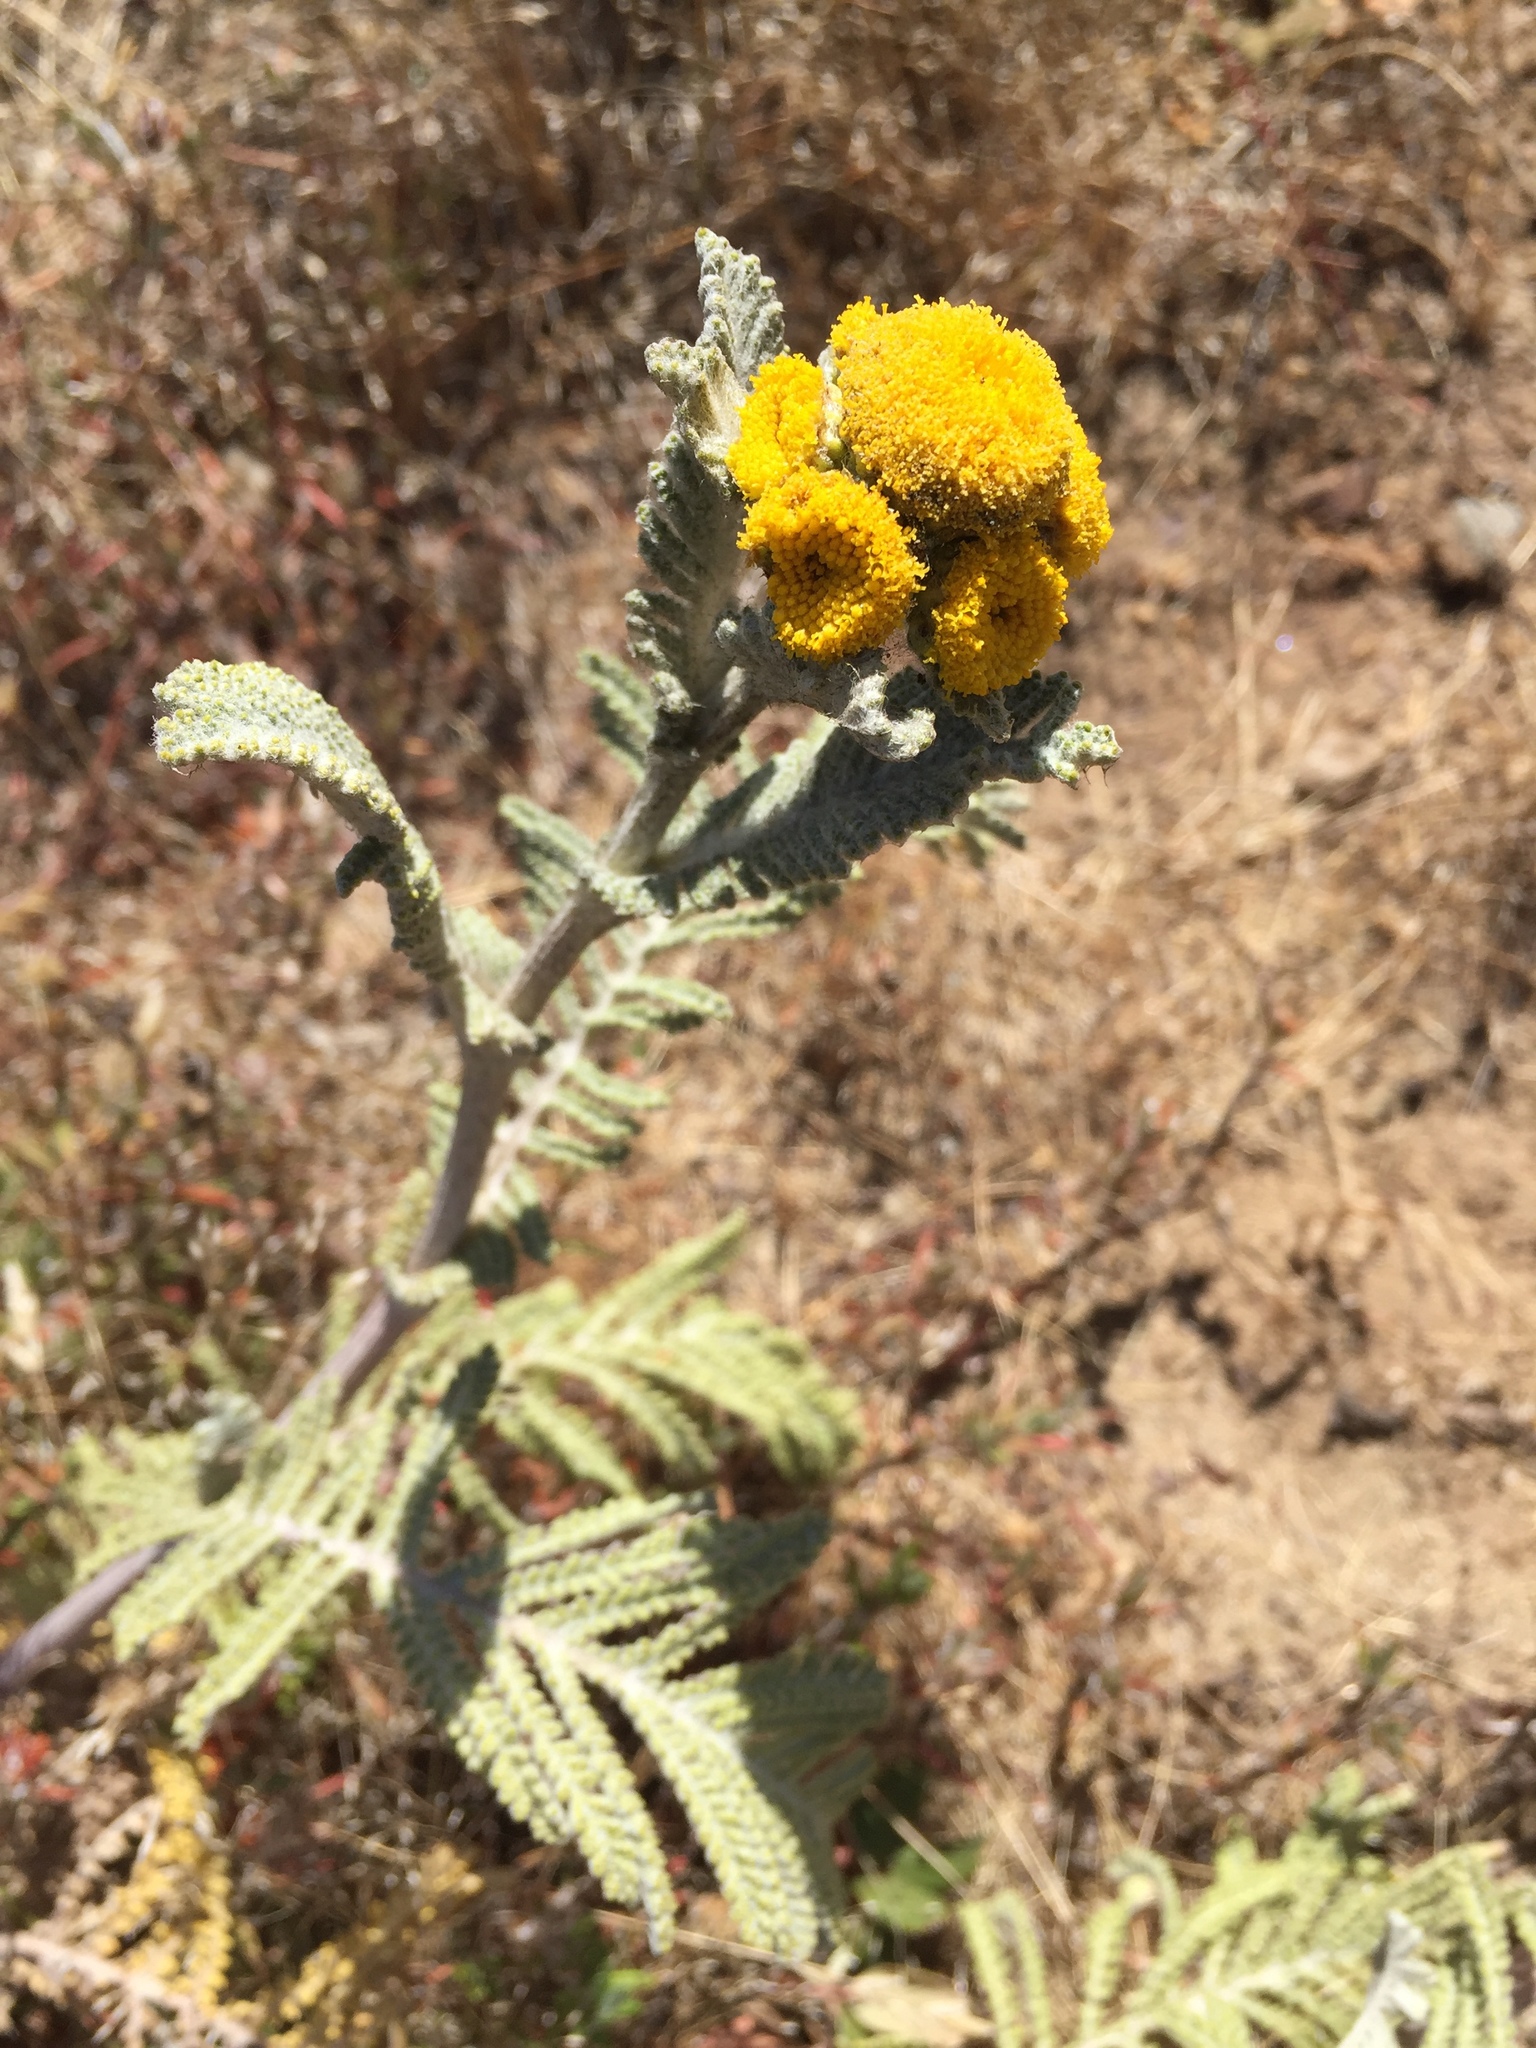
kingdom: Plantae
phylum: Tracheophyta
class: Magnoliopsida
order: Asterales
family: Asteraceae
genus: Tanacetum
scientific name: Tanacetum bipinnatum
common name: Dwarf tansy
